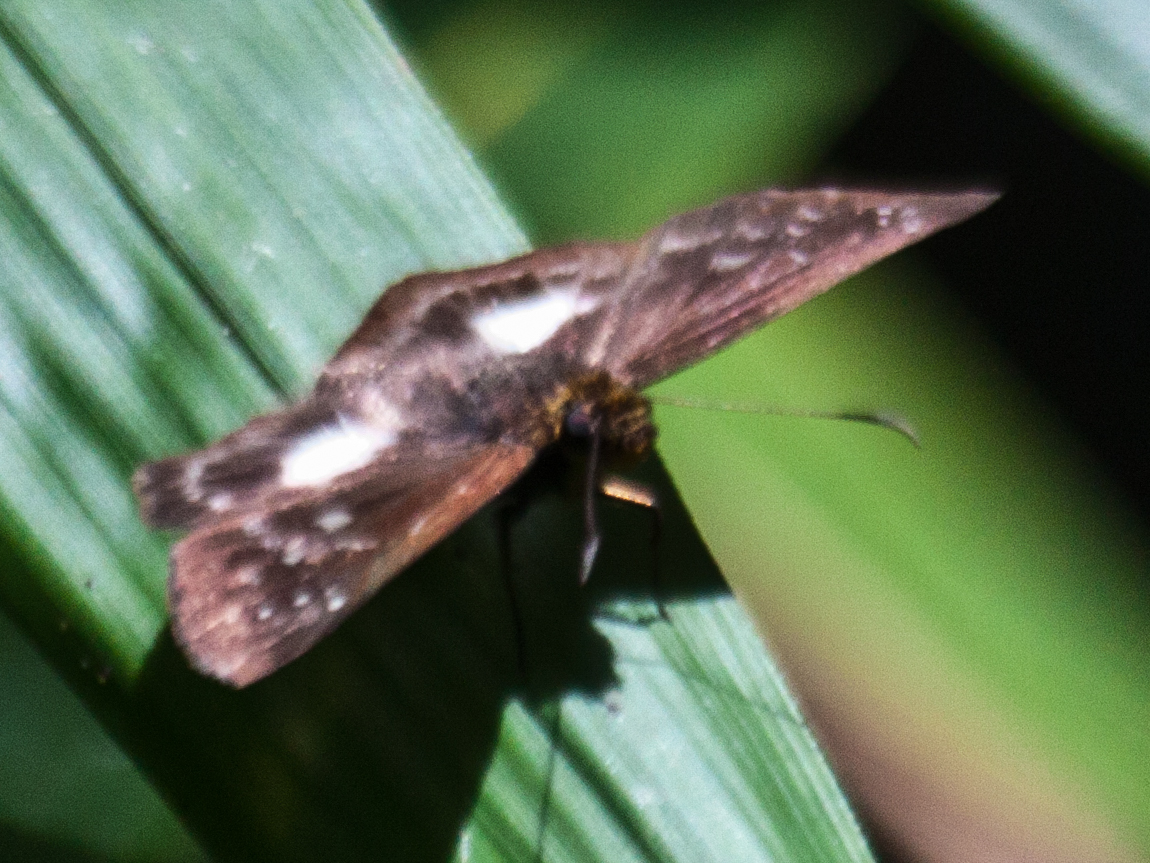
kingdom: Animalia
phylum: Arthropoda
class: Insecta
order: Lepidoptera
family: Hesperiidae
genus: Daimio
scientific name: Daimio
